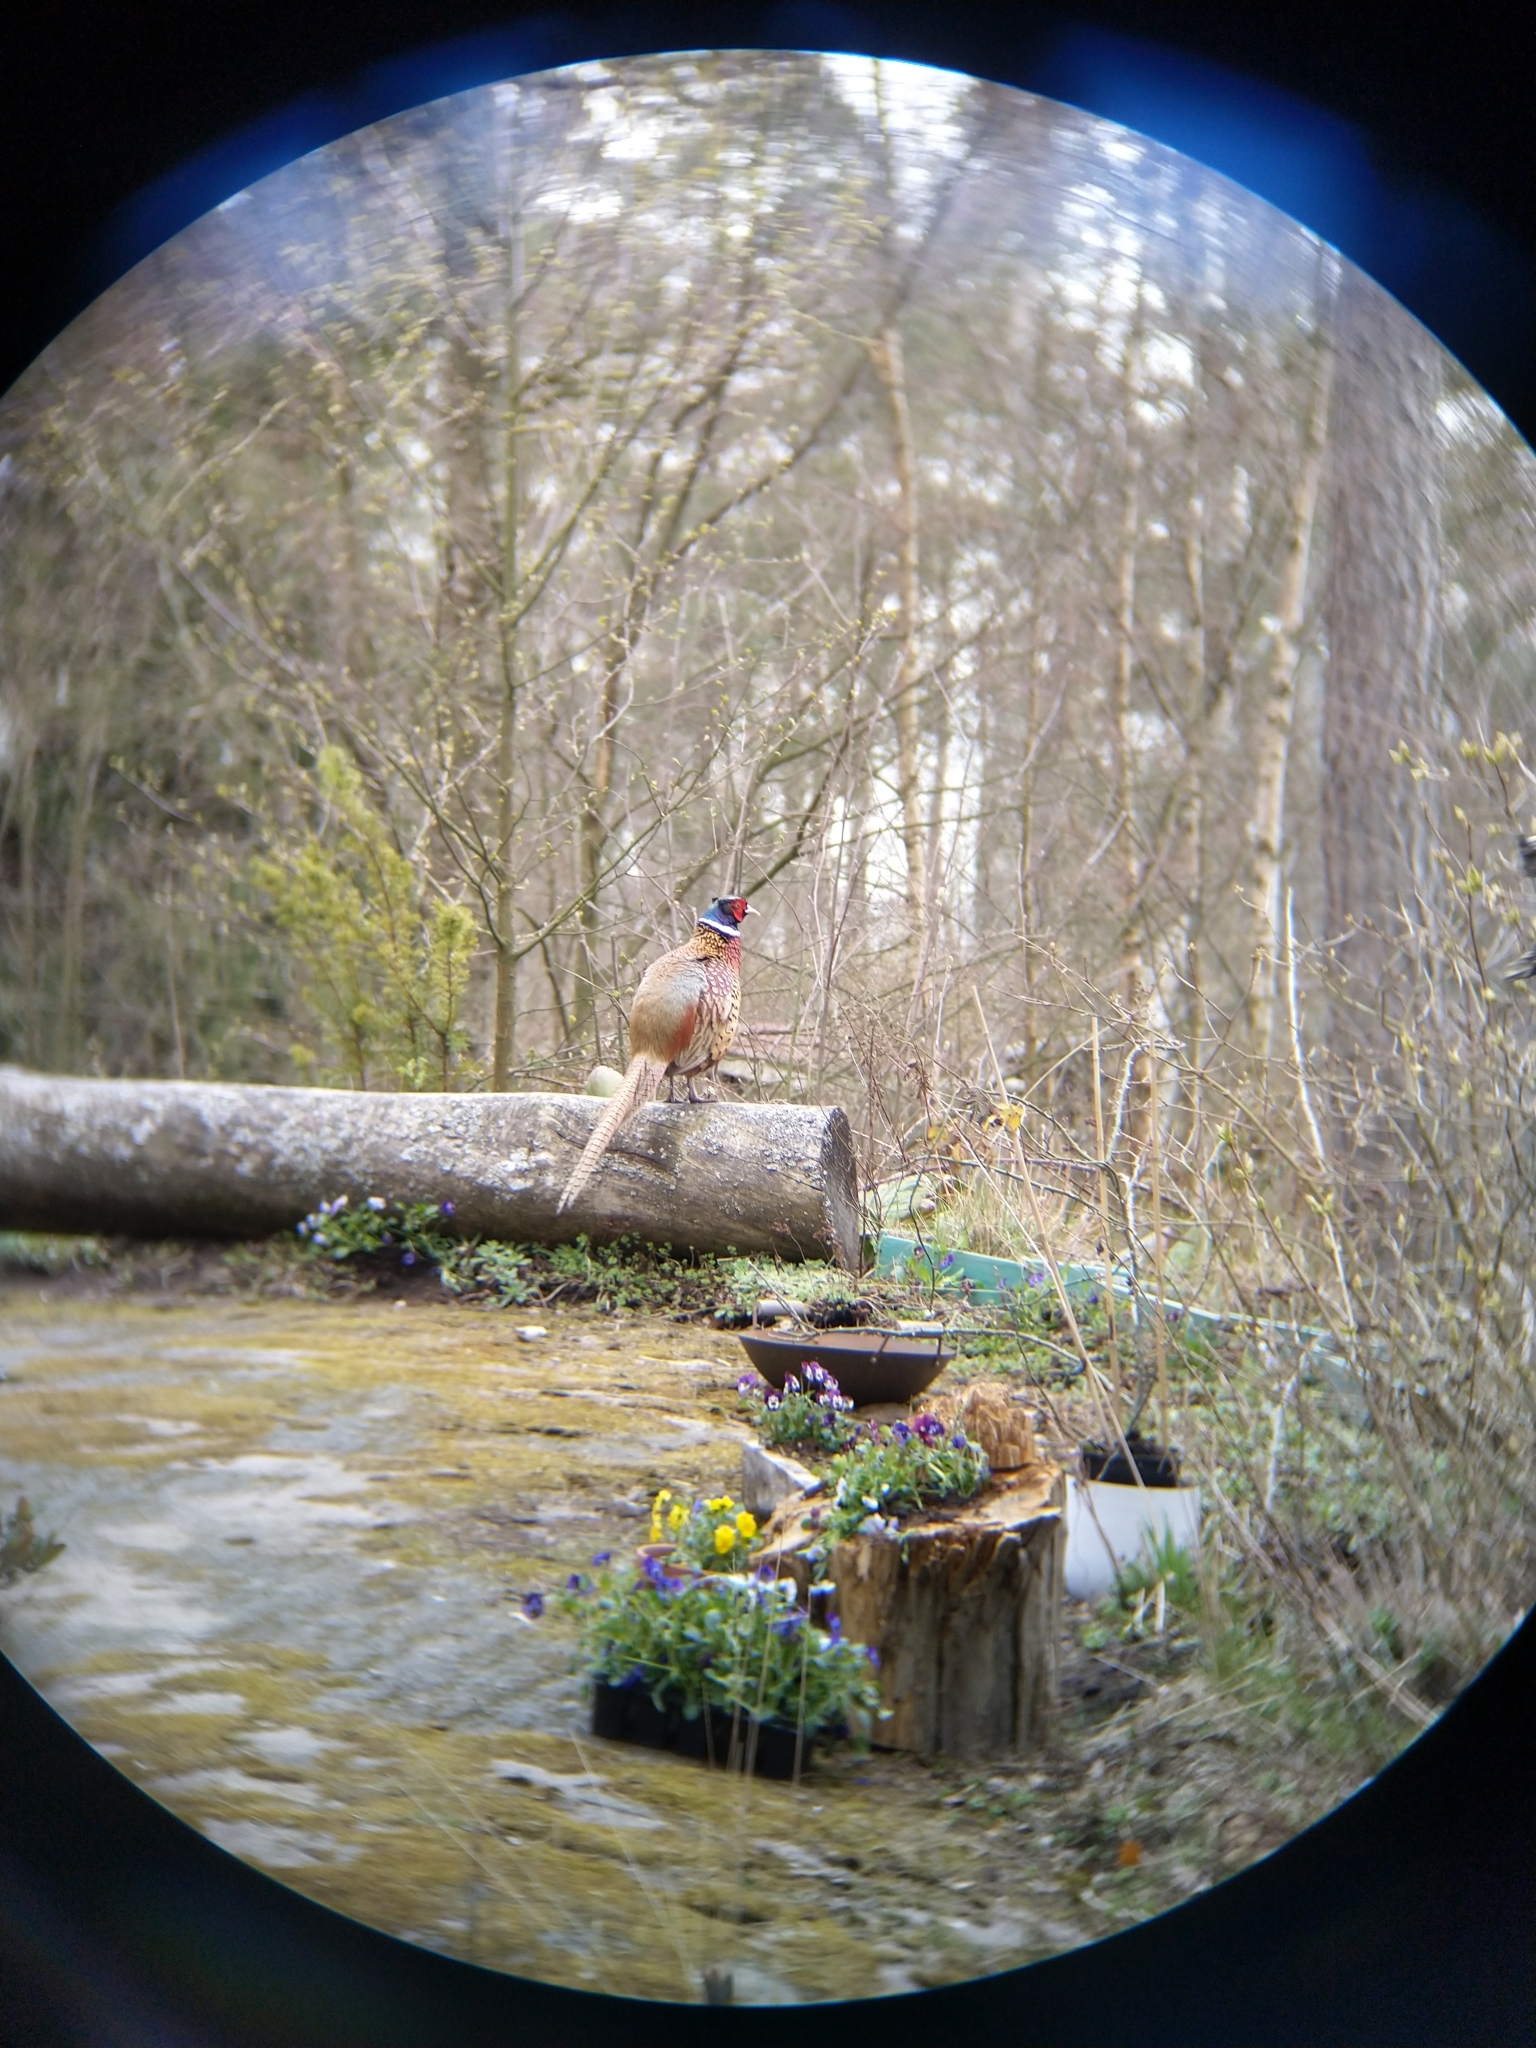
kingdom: Animalia
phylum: Chordata
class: Aves
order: Galliformes
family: Phasianidae
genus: Phasianus
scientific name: Phasianus colchicus
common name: Common pheasant
